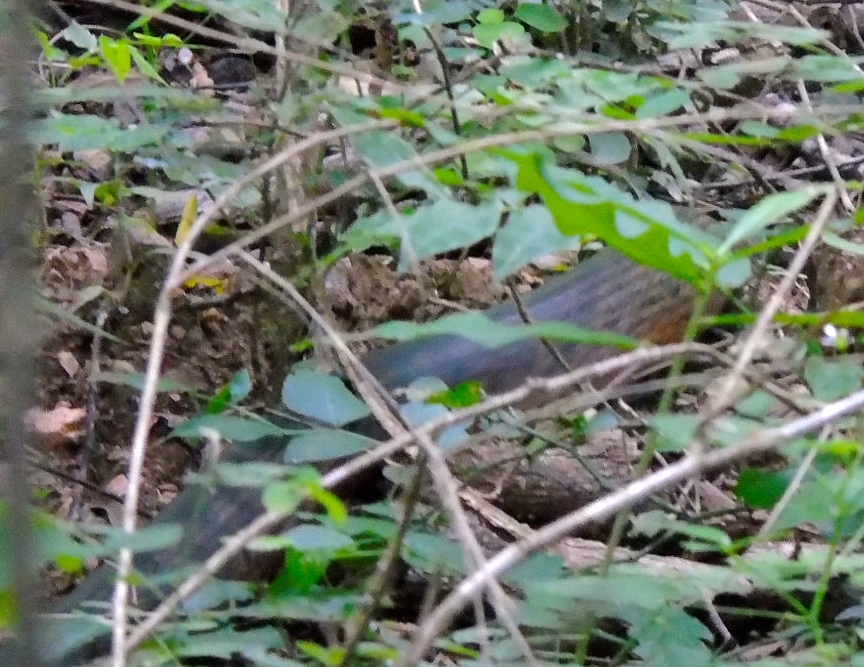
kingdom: Animalia
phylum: Chordata
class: Squamata
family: Colubridae
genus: Drymarchon
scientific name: Drymarchon melanurus
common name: Central american indigo snake
